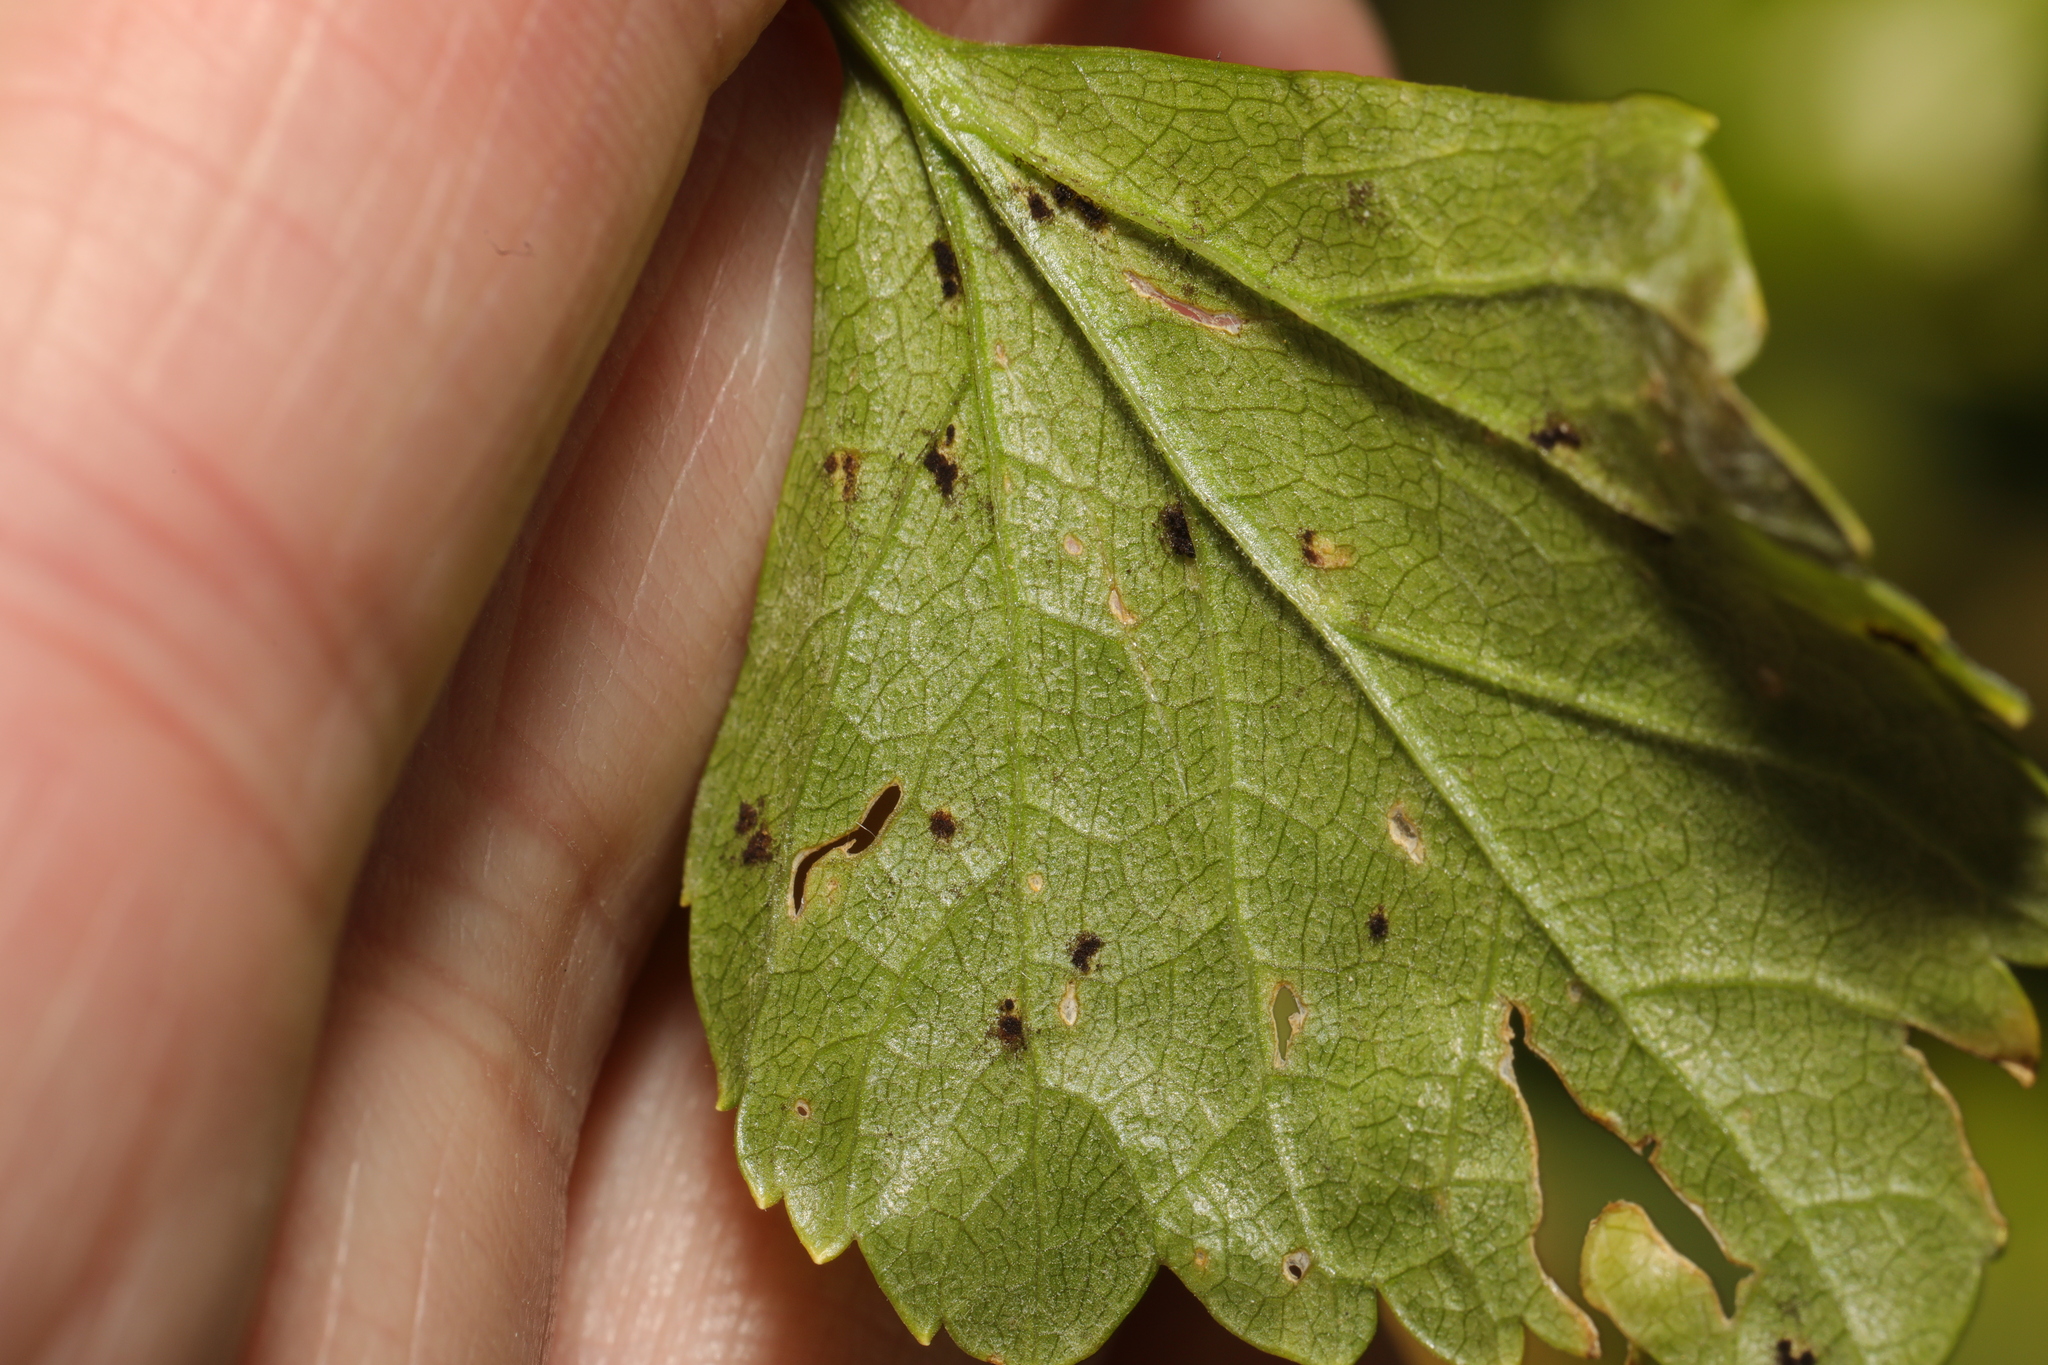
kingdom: Fungi
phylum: Basidiomycota
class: Pucciniomycetes
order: Pucciniales
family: Pucciniaceae
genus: Puccinia
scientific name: Puccinia smyrnii
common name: Alexanders rust
